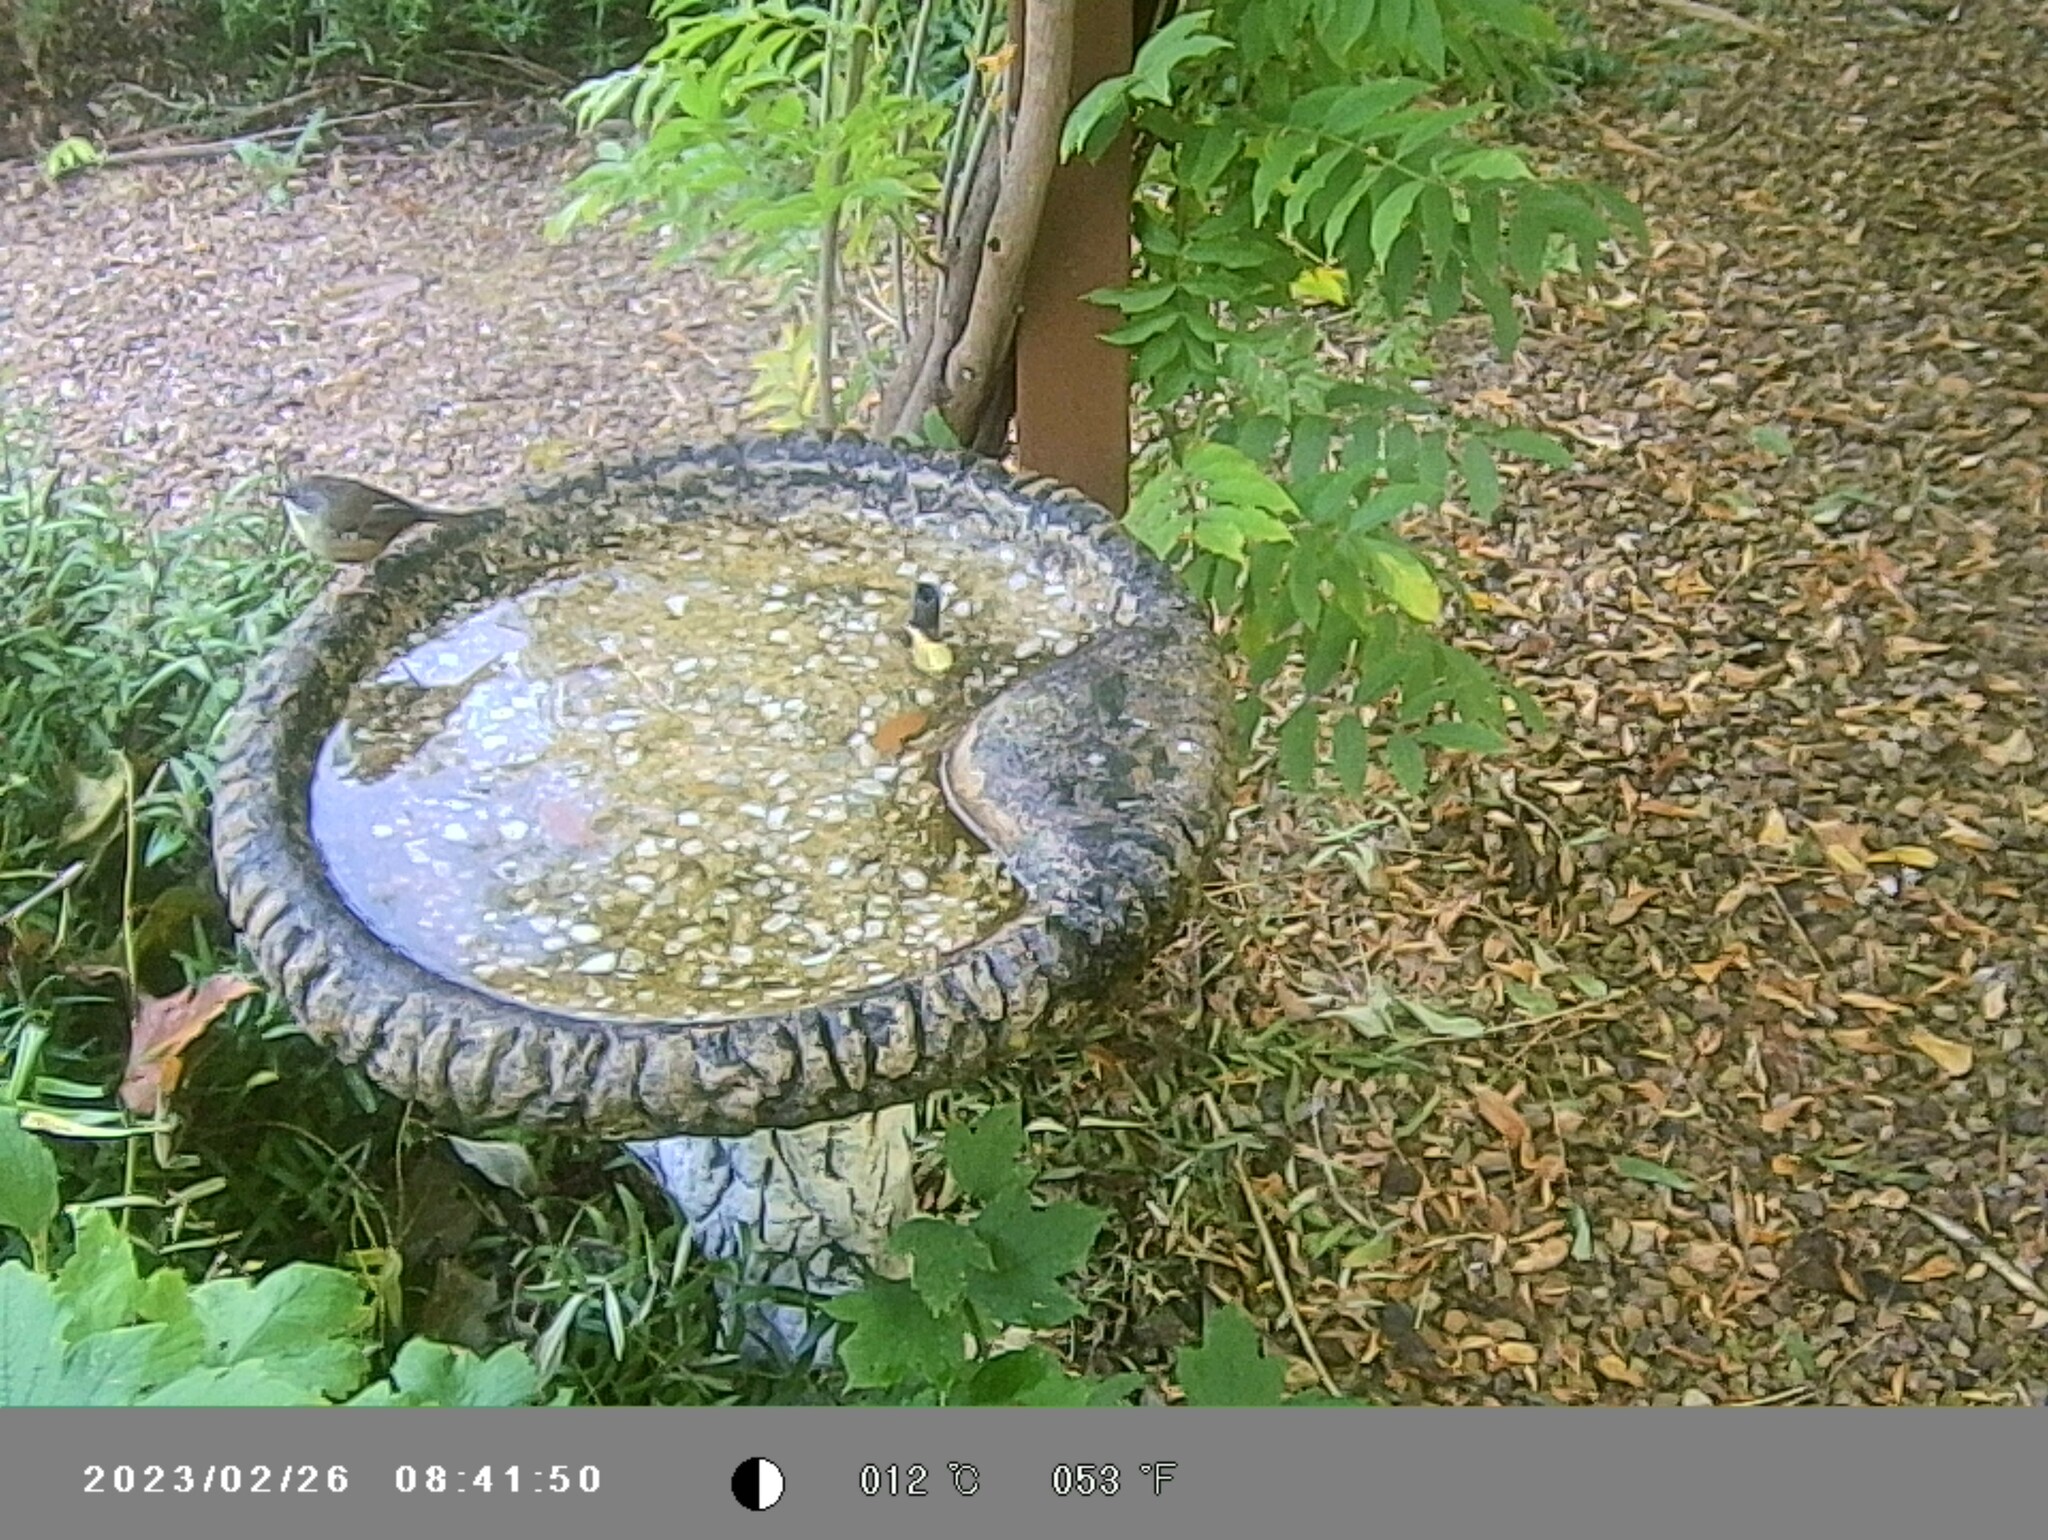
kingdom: Animalia
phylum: Chordata
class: Aves
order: Passeriformes
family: Acanthizidae
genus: Sericornis
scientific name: Sericornis frontalis
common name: White-browed scrubwren
